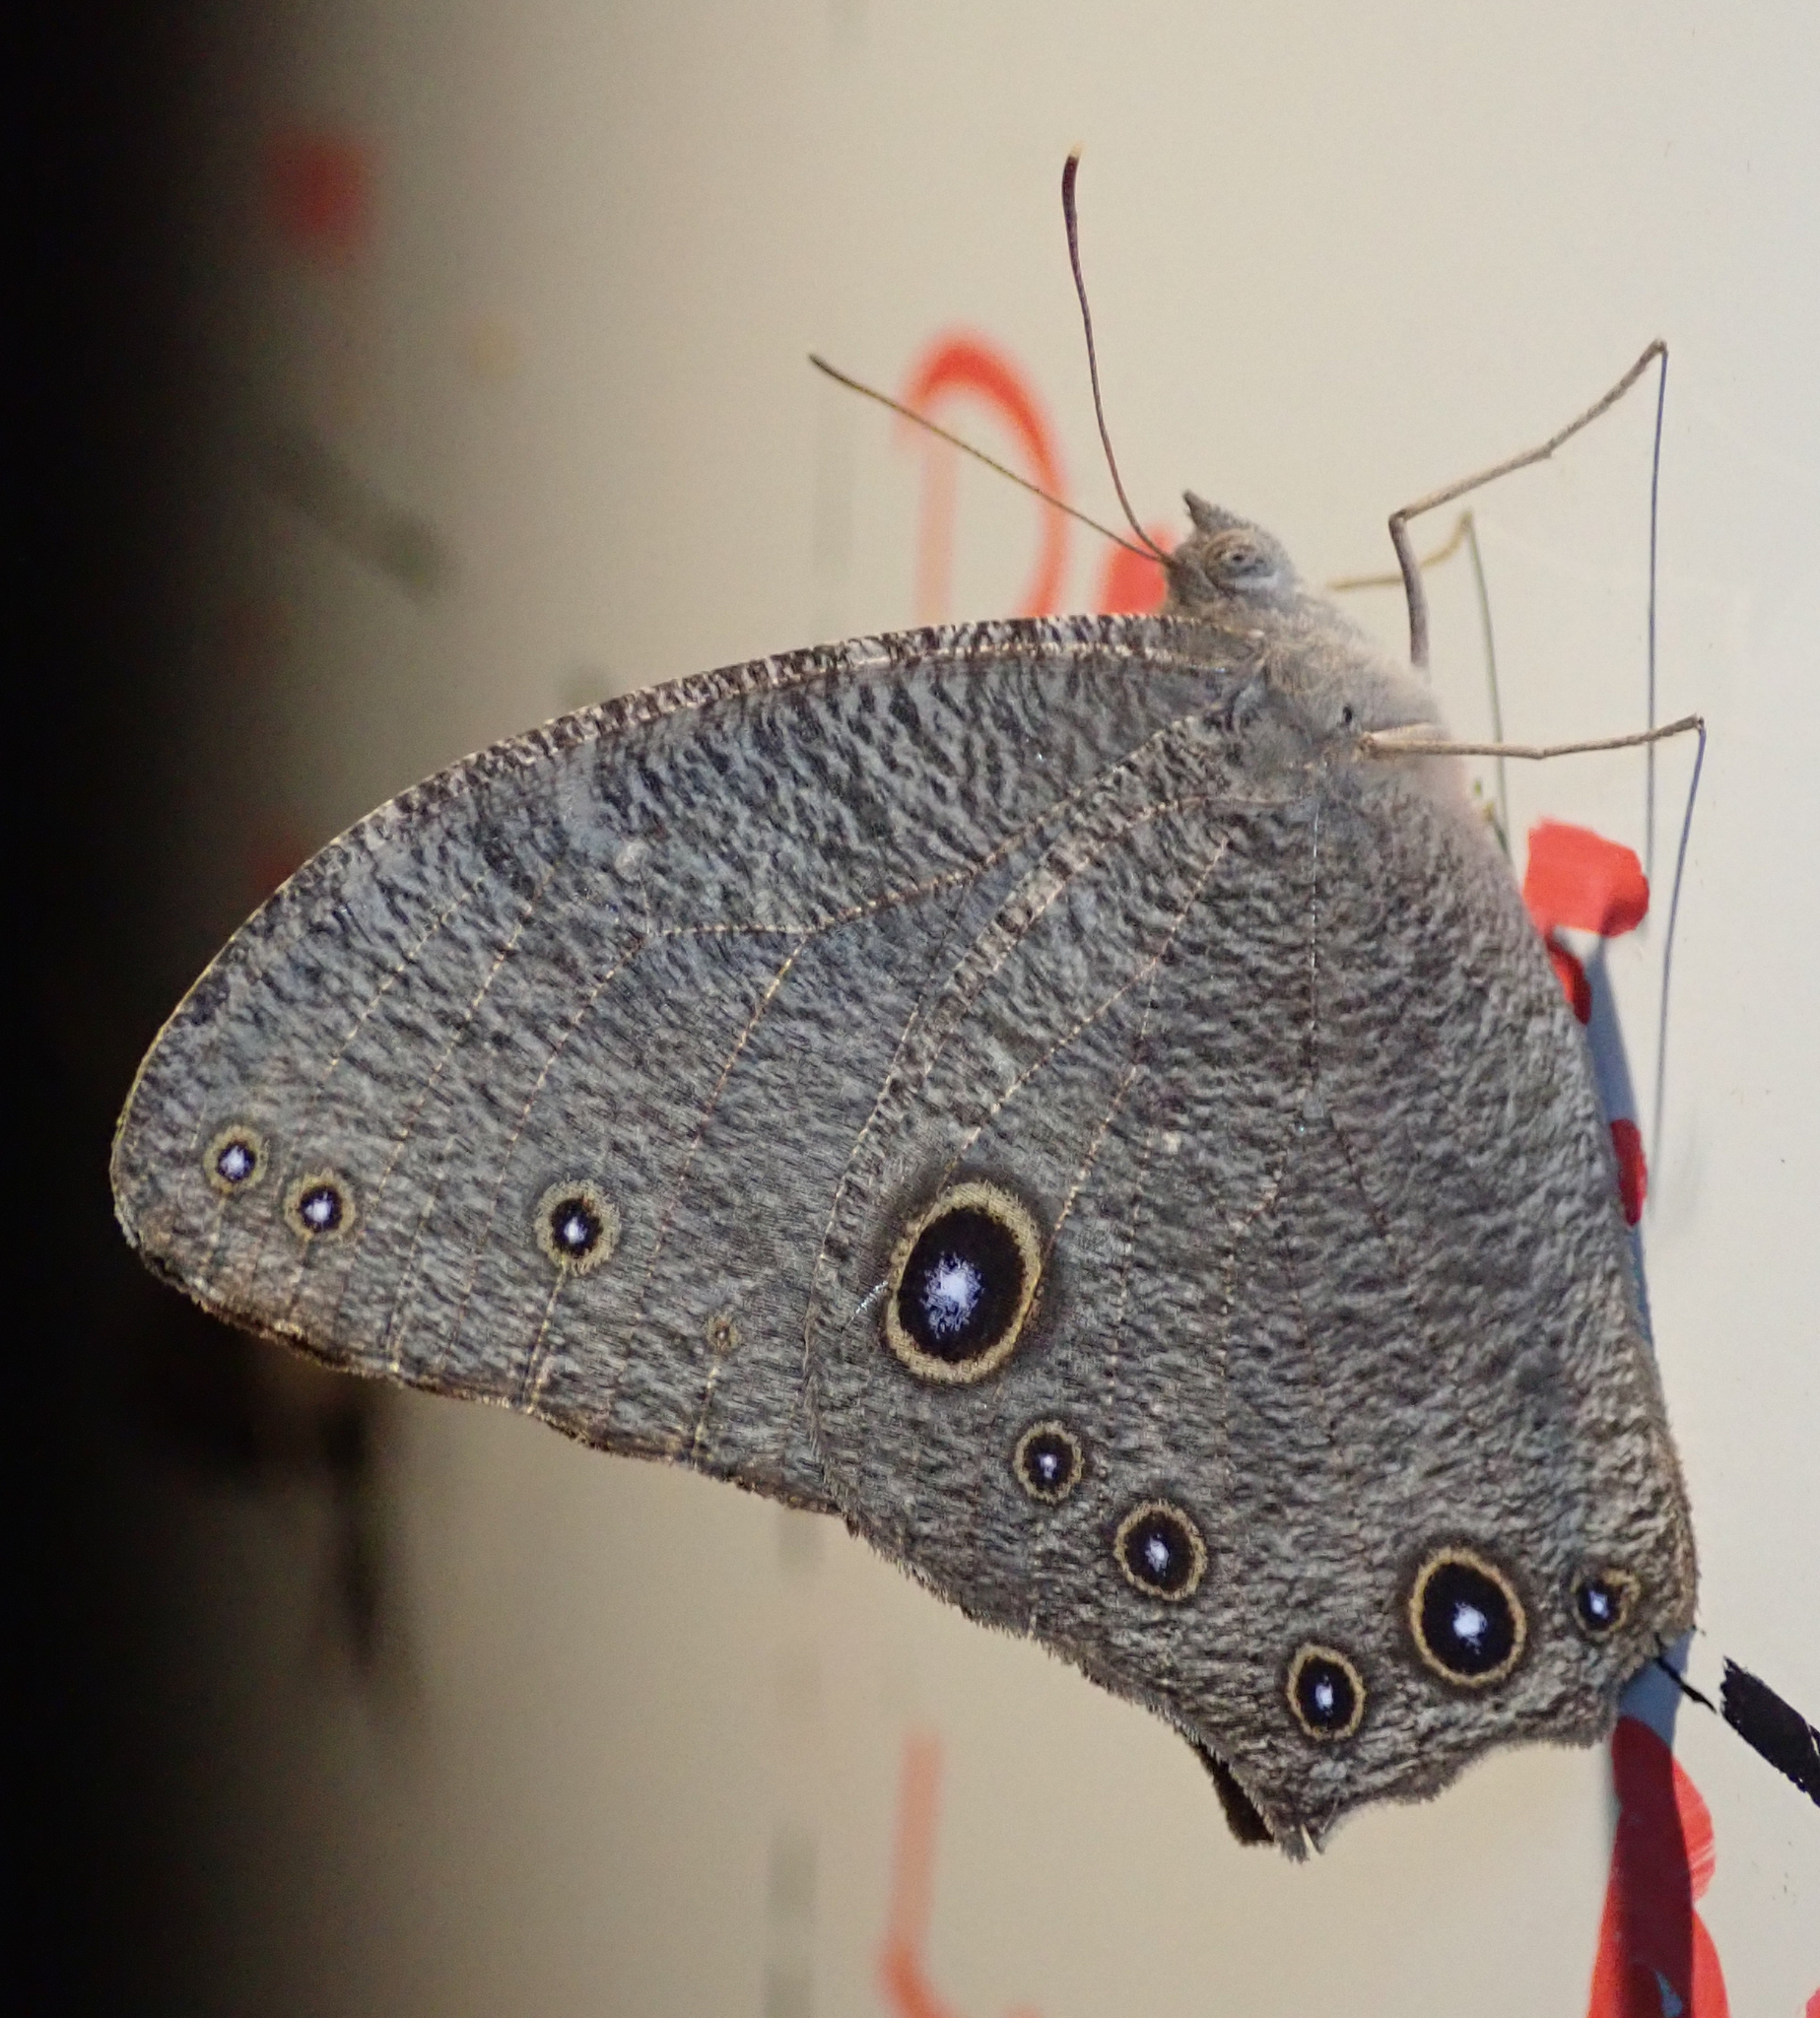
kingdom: Animalia
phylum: Arthropoda
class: Insecta
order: Lepidoptera
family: Nymphalidae
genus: Melanitis
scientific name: Melanitis leda
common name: Twilight brown
